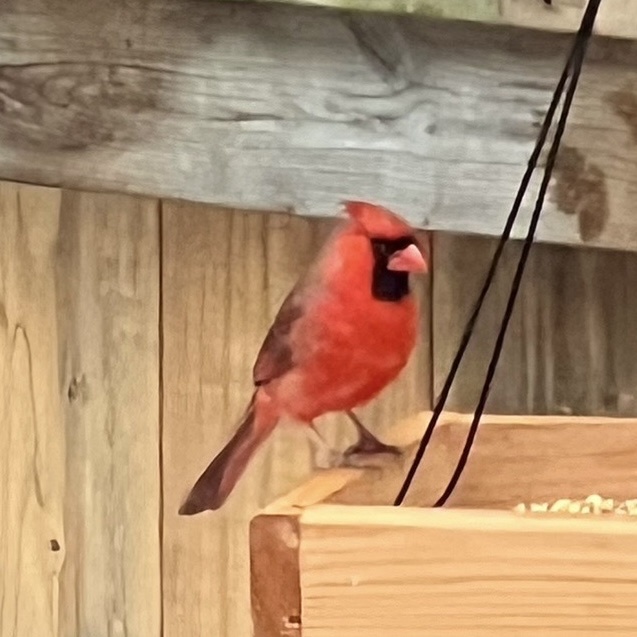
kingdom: Animalia
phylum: Chordata
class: Aves
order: Passeriformes
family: Cardinalidae
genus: Cardinalis
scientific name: Cardinalis cardinalis
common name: Northern cardinal
